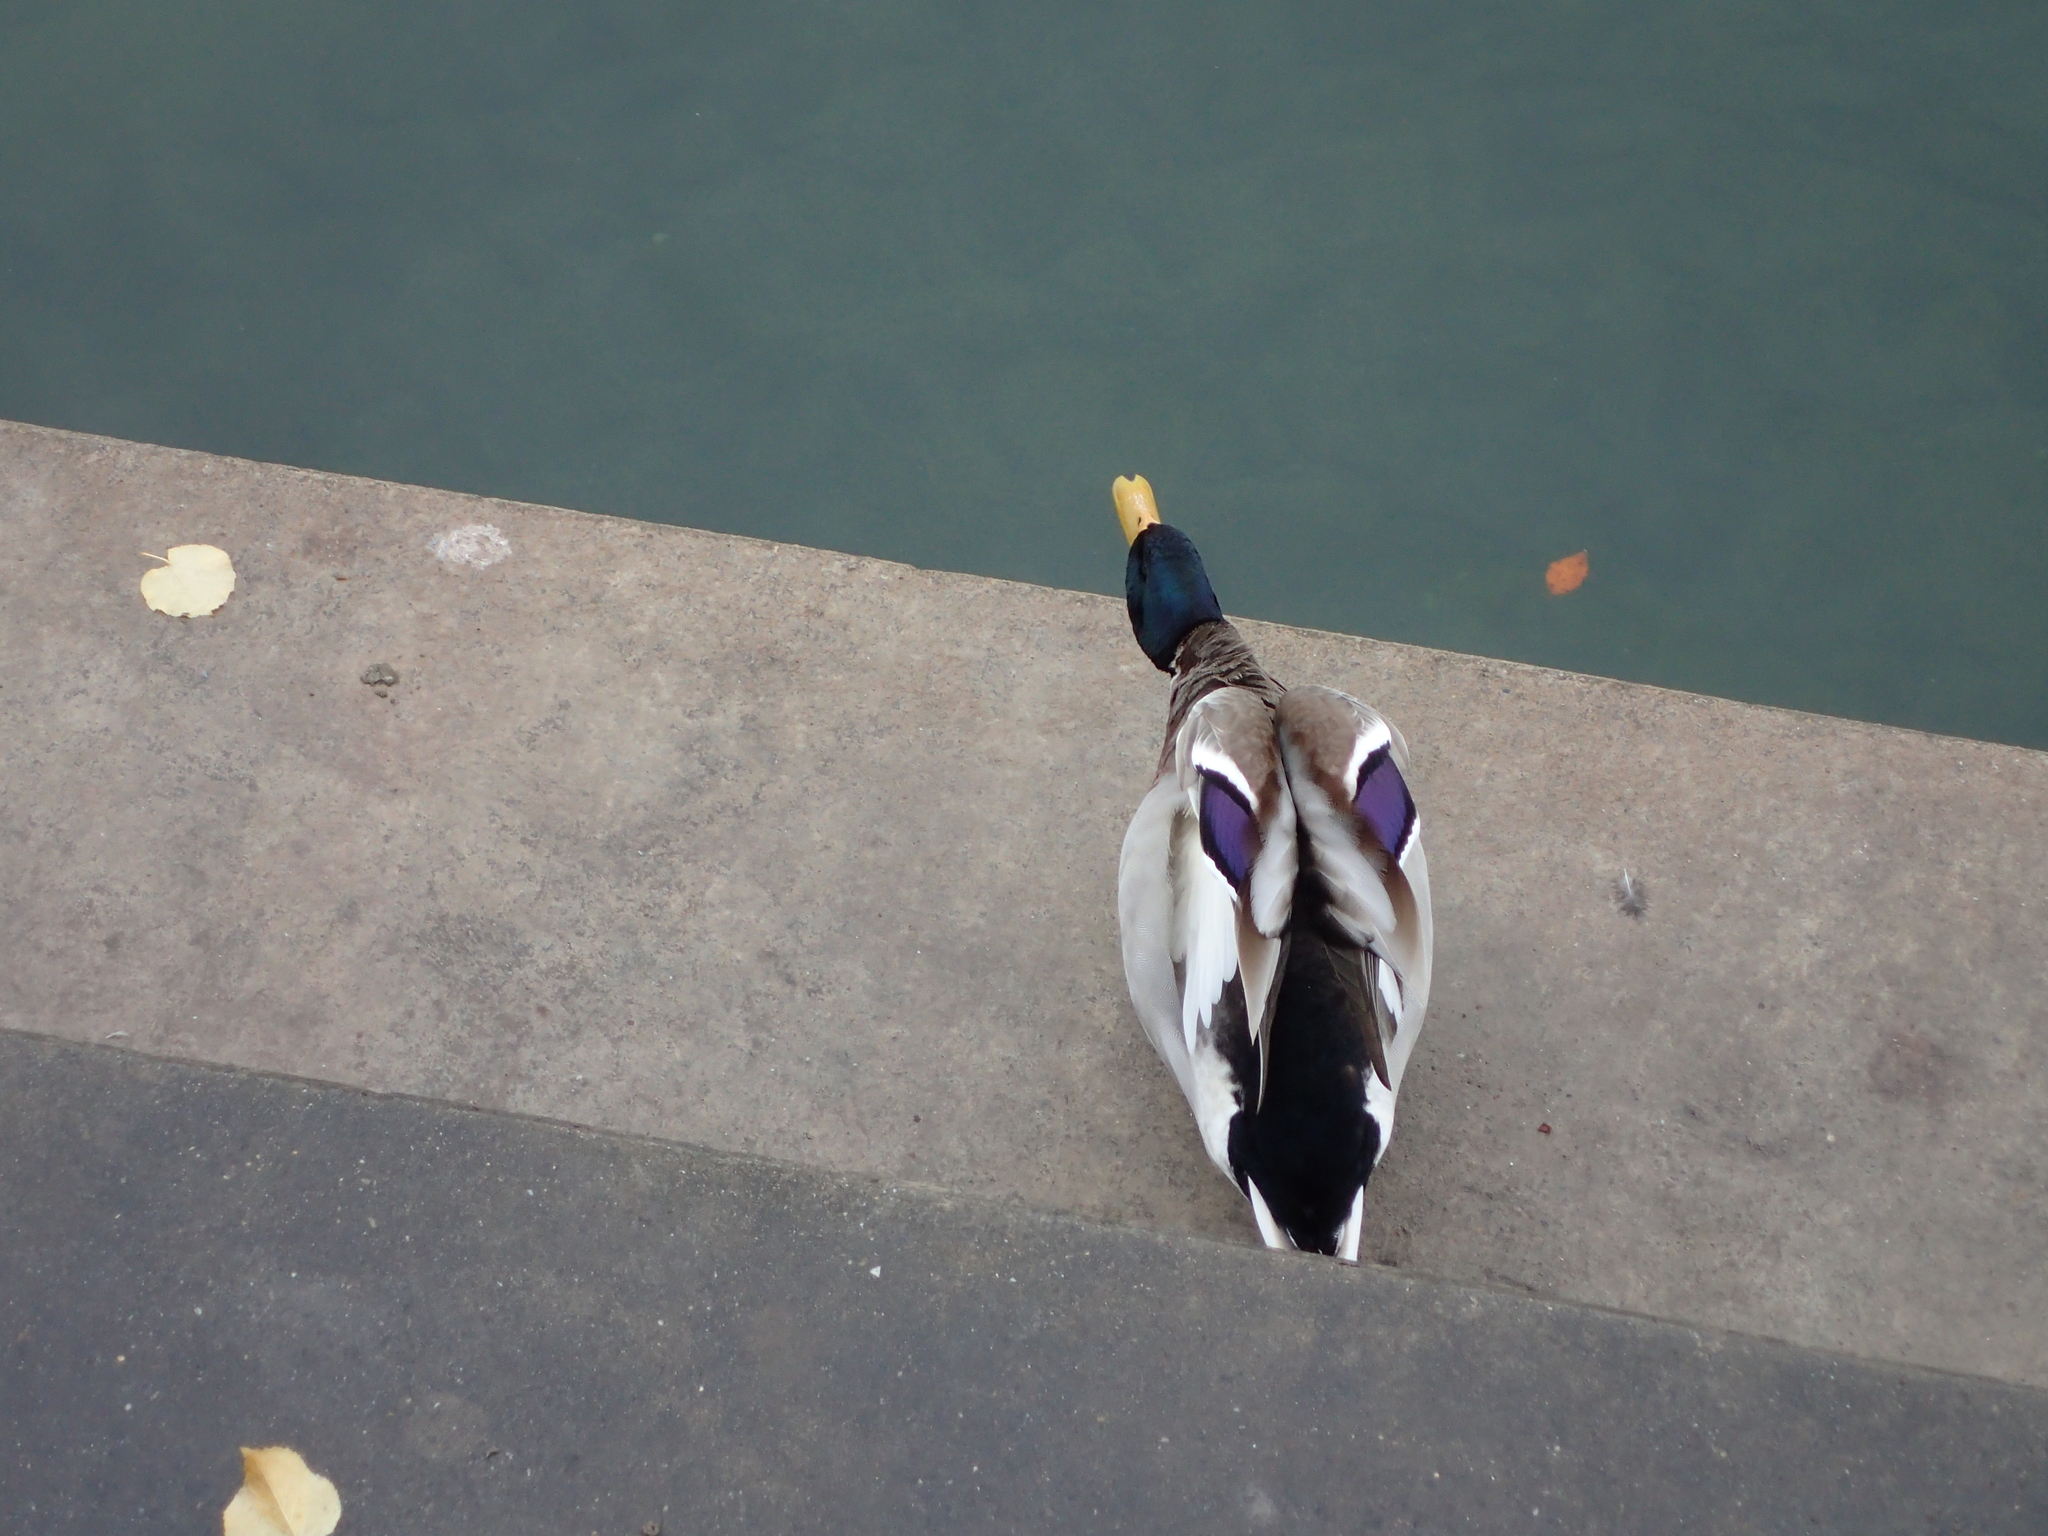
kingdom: Animalia
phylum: Chordata
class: Aves
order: Anseriformes
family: Anatidae
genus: Anas
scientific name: Anas platyrhynchos
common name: Mallard
